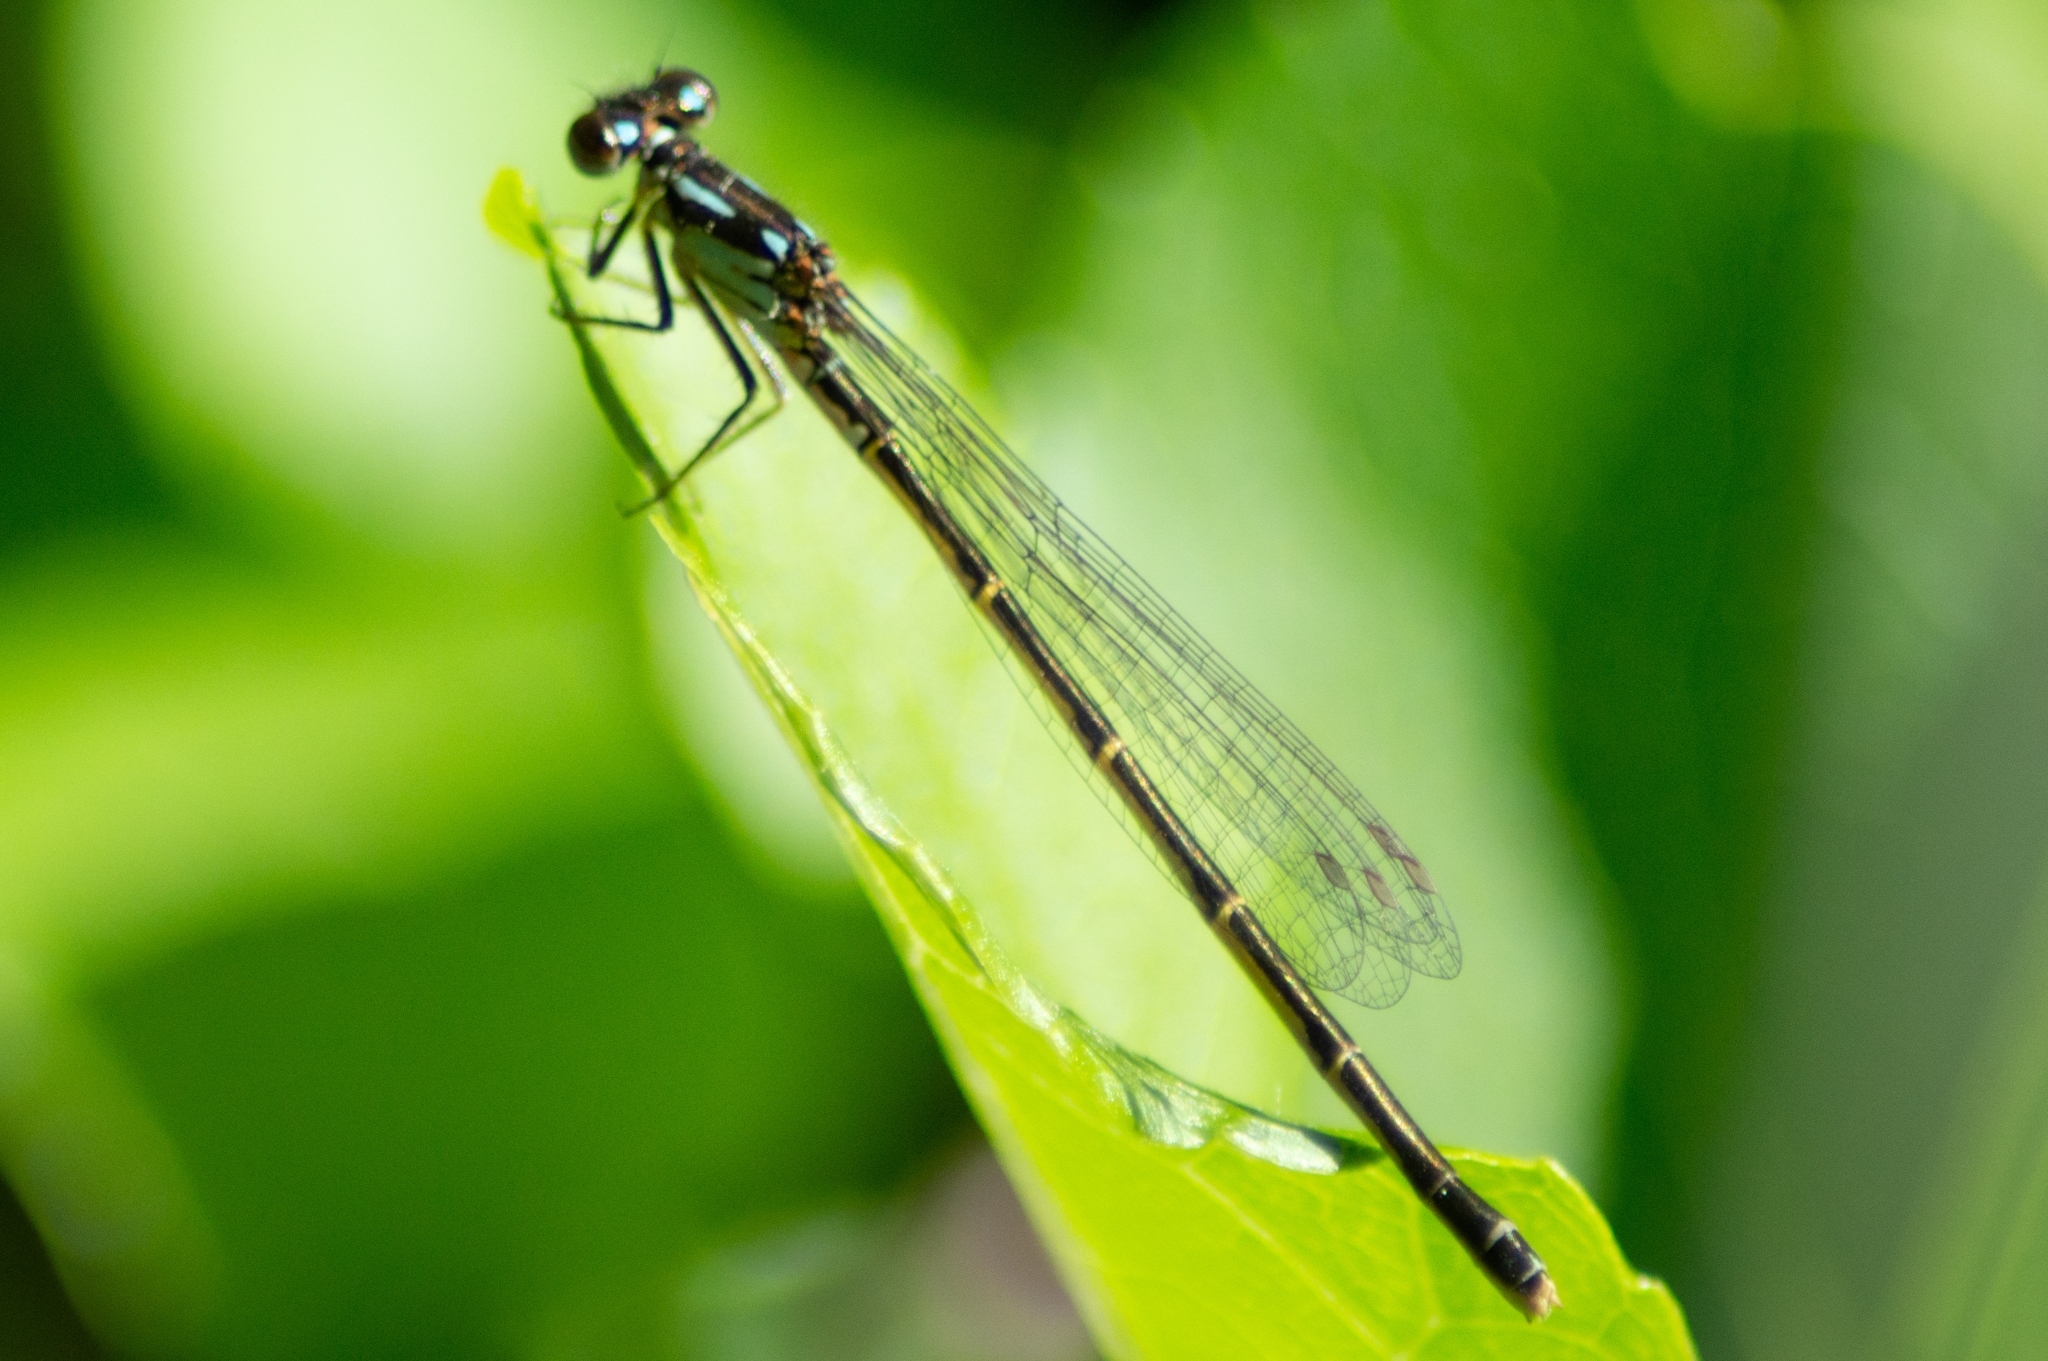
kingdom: Animalia
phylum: Arthropoda
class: Insecta
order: Odonata
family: Coenagrionidae
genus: Ischnura
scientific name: Ischnura posita
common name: Fragile forktail
